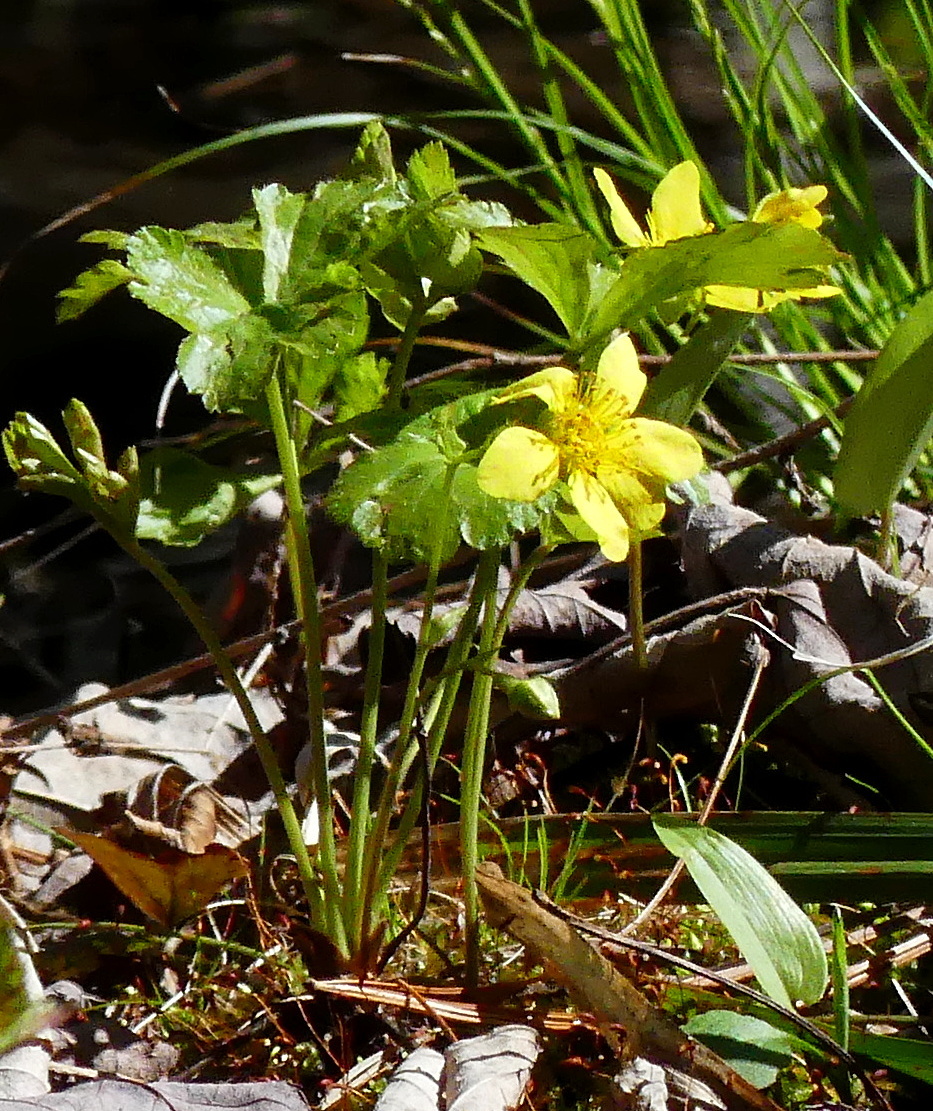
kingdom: Plantae
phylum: Tracheophyta
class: Magnoliopsida
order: Rosales
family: Rosaceae
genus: Geum
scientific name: Geum fragarioides
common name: Appalachian barren strawberry
